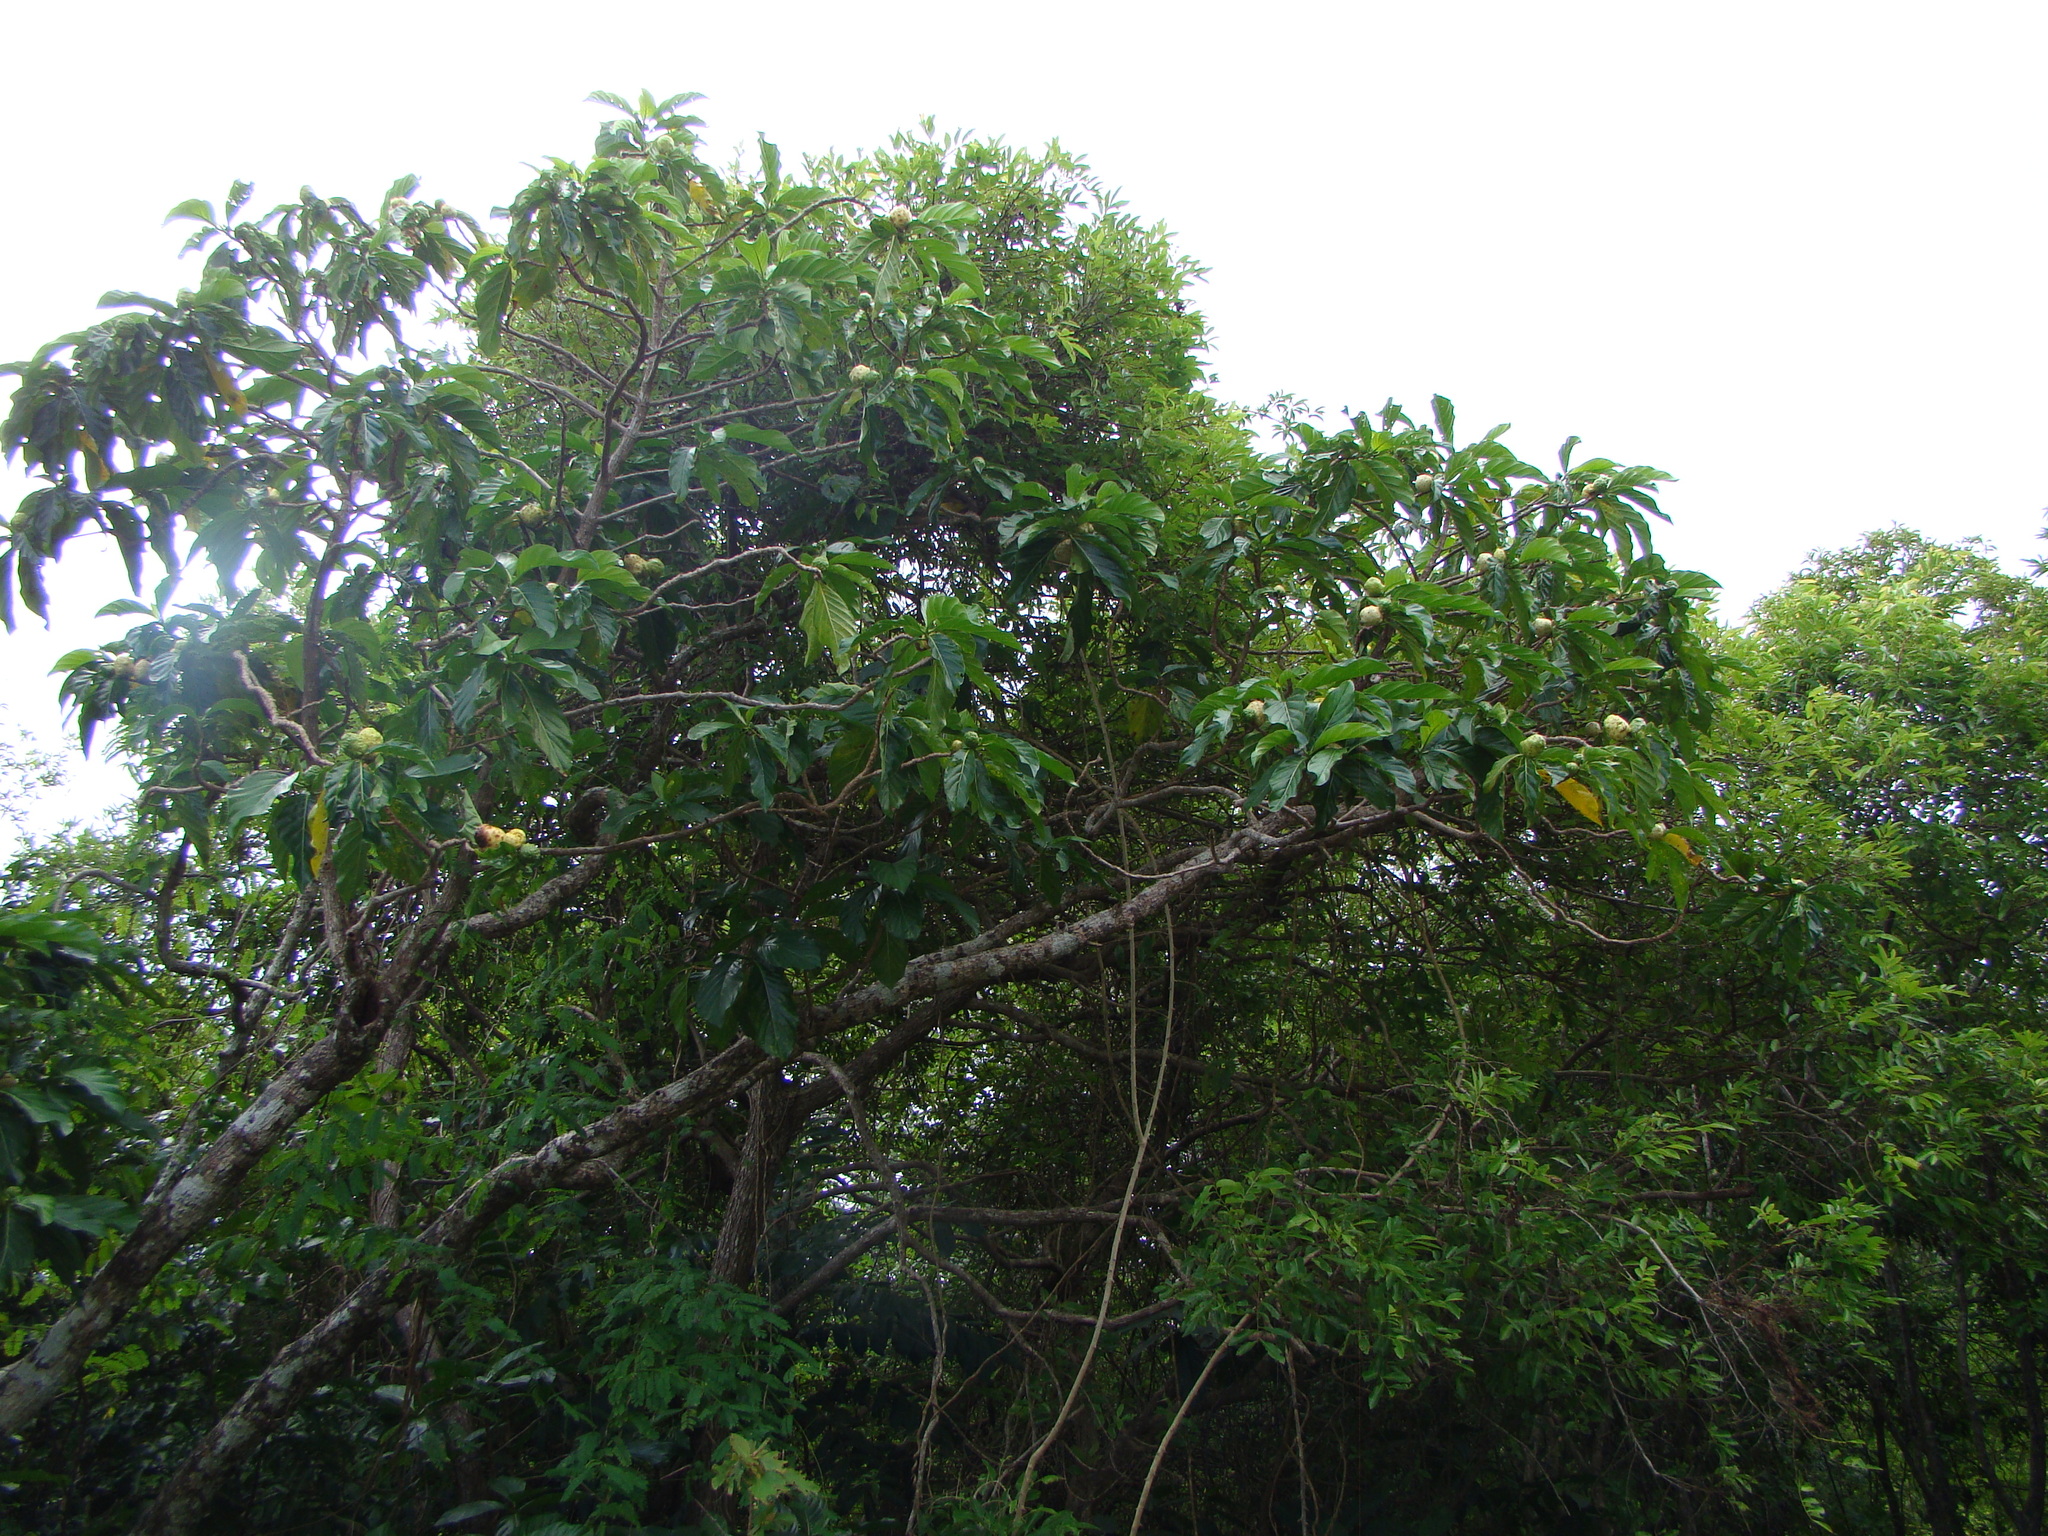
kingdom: Plantae
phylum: Tracheophyta
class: Magnoliopsida
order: Gentianales
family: Rubiaceae
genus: Morinda
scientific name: Morinda citrifolia
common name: Indian-mulberry
